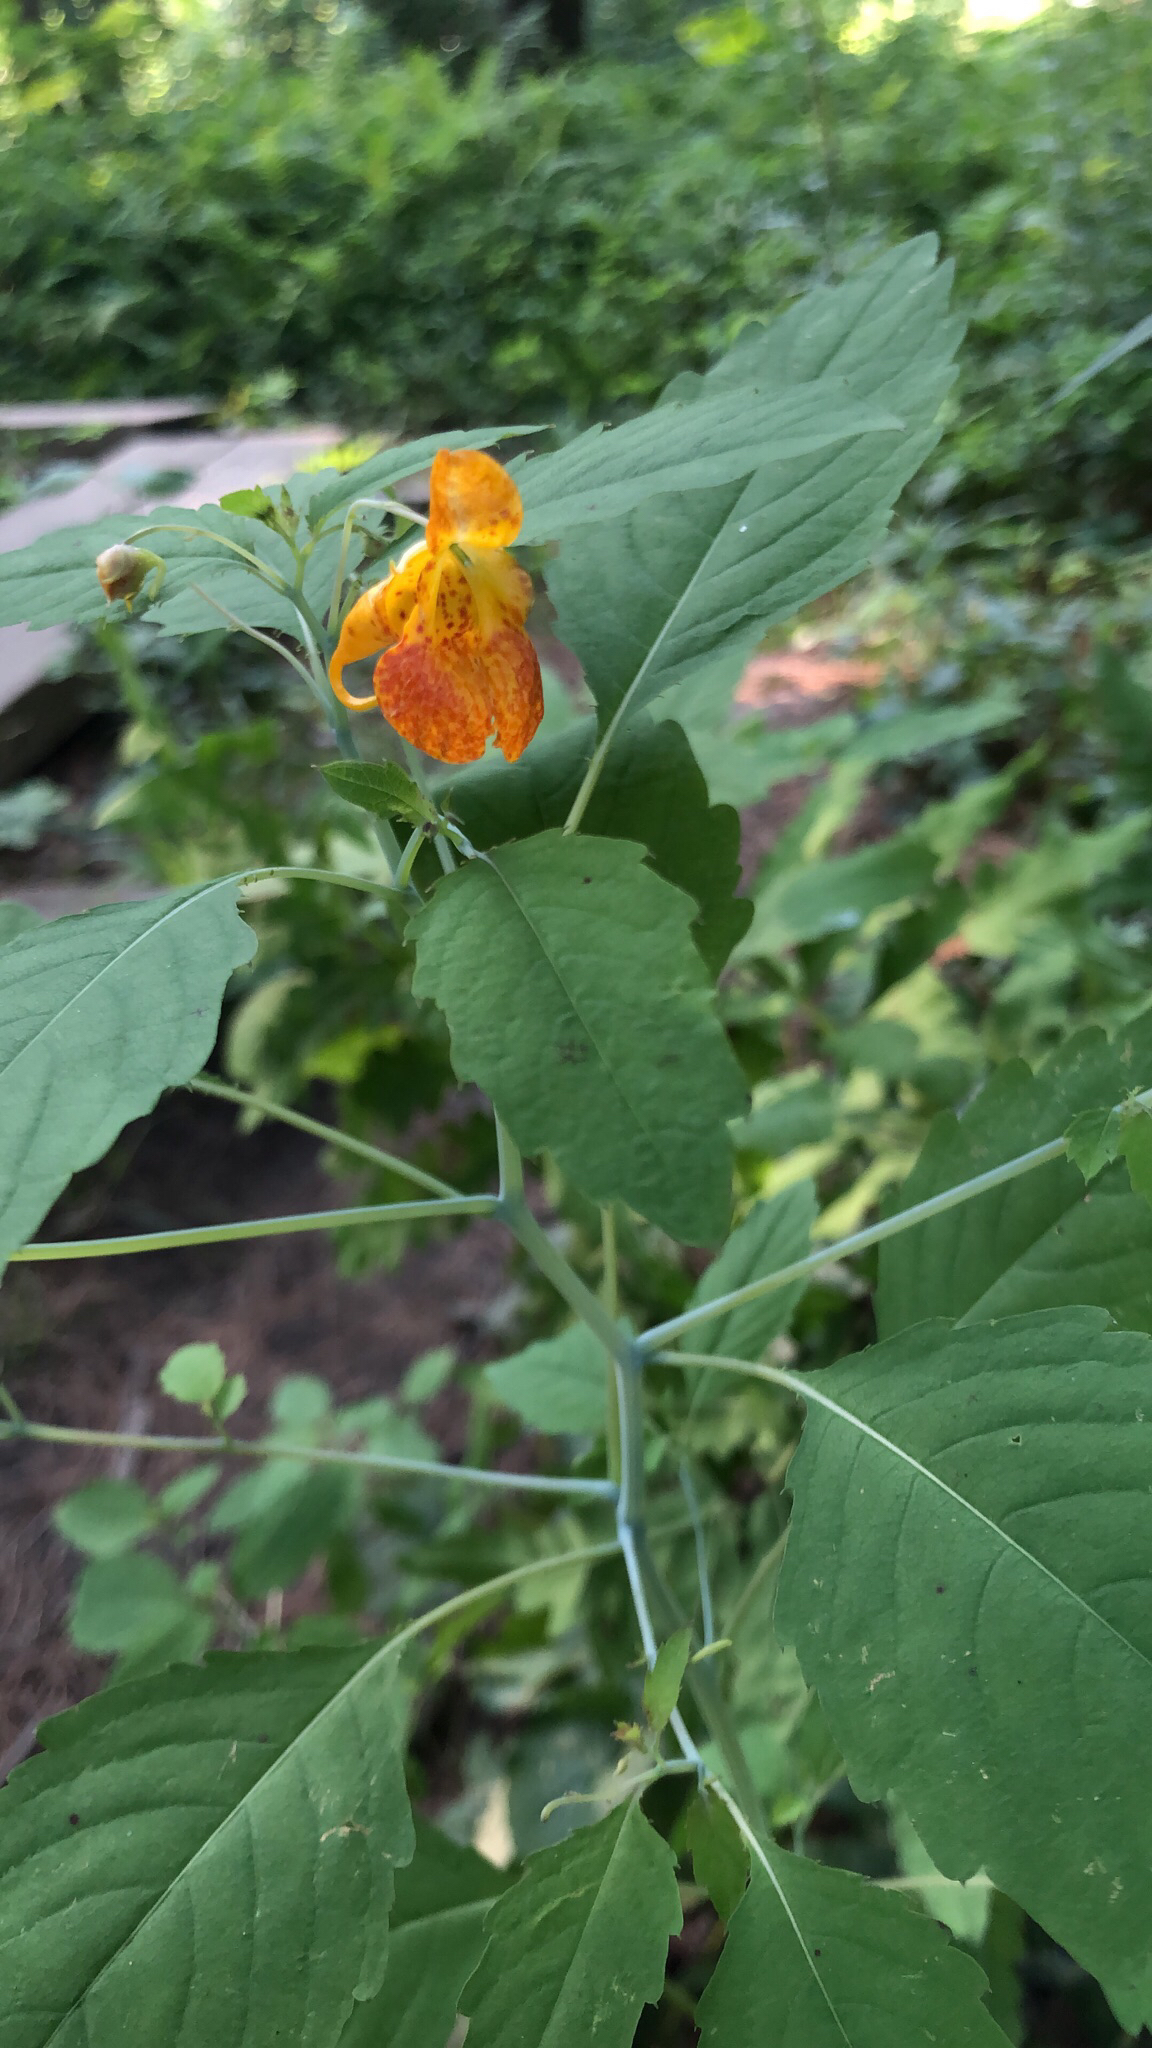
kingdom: Plantae
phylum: Tracheophyta
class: Magnoliopsida
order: Ericales
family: Balsaminaceae
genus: Impatiens
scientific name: Impatiens capensis
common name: Orange balsam
